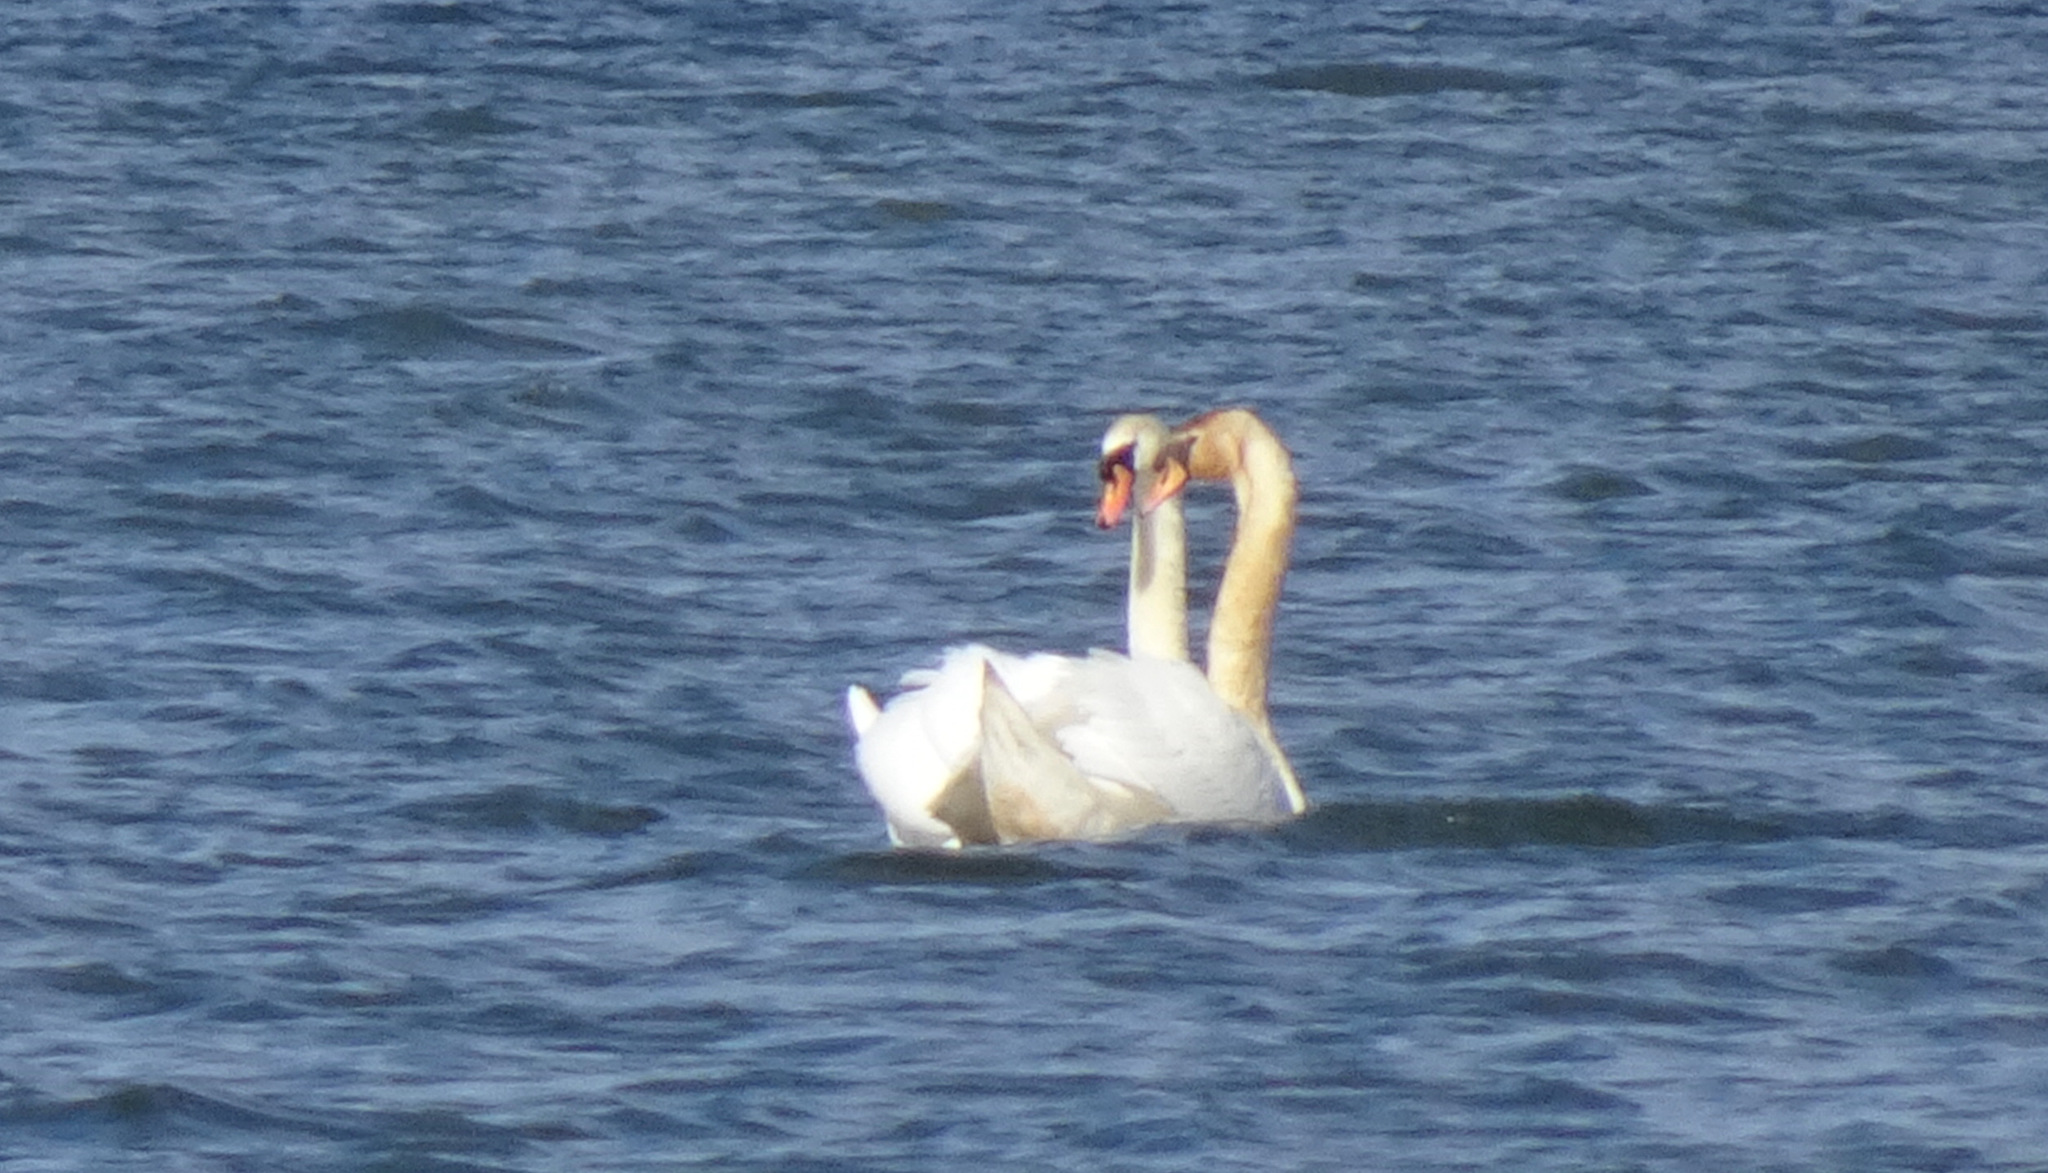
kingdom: Animalia
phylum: Chordata
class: Aves
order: Anseriformes
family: Anatidae
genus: Cygnus
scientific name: Cygnus olor
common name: Mute swan
